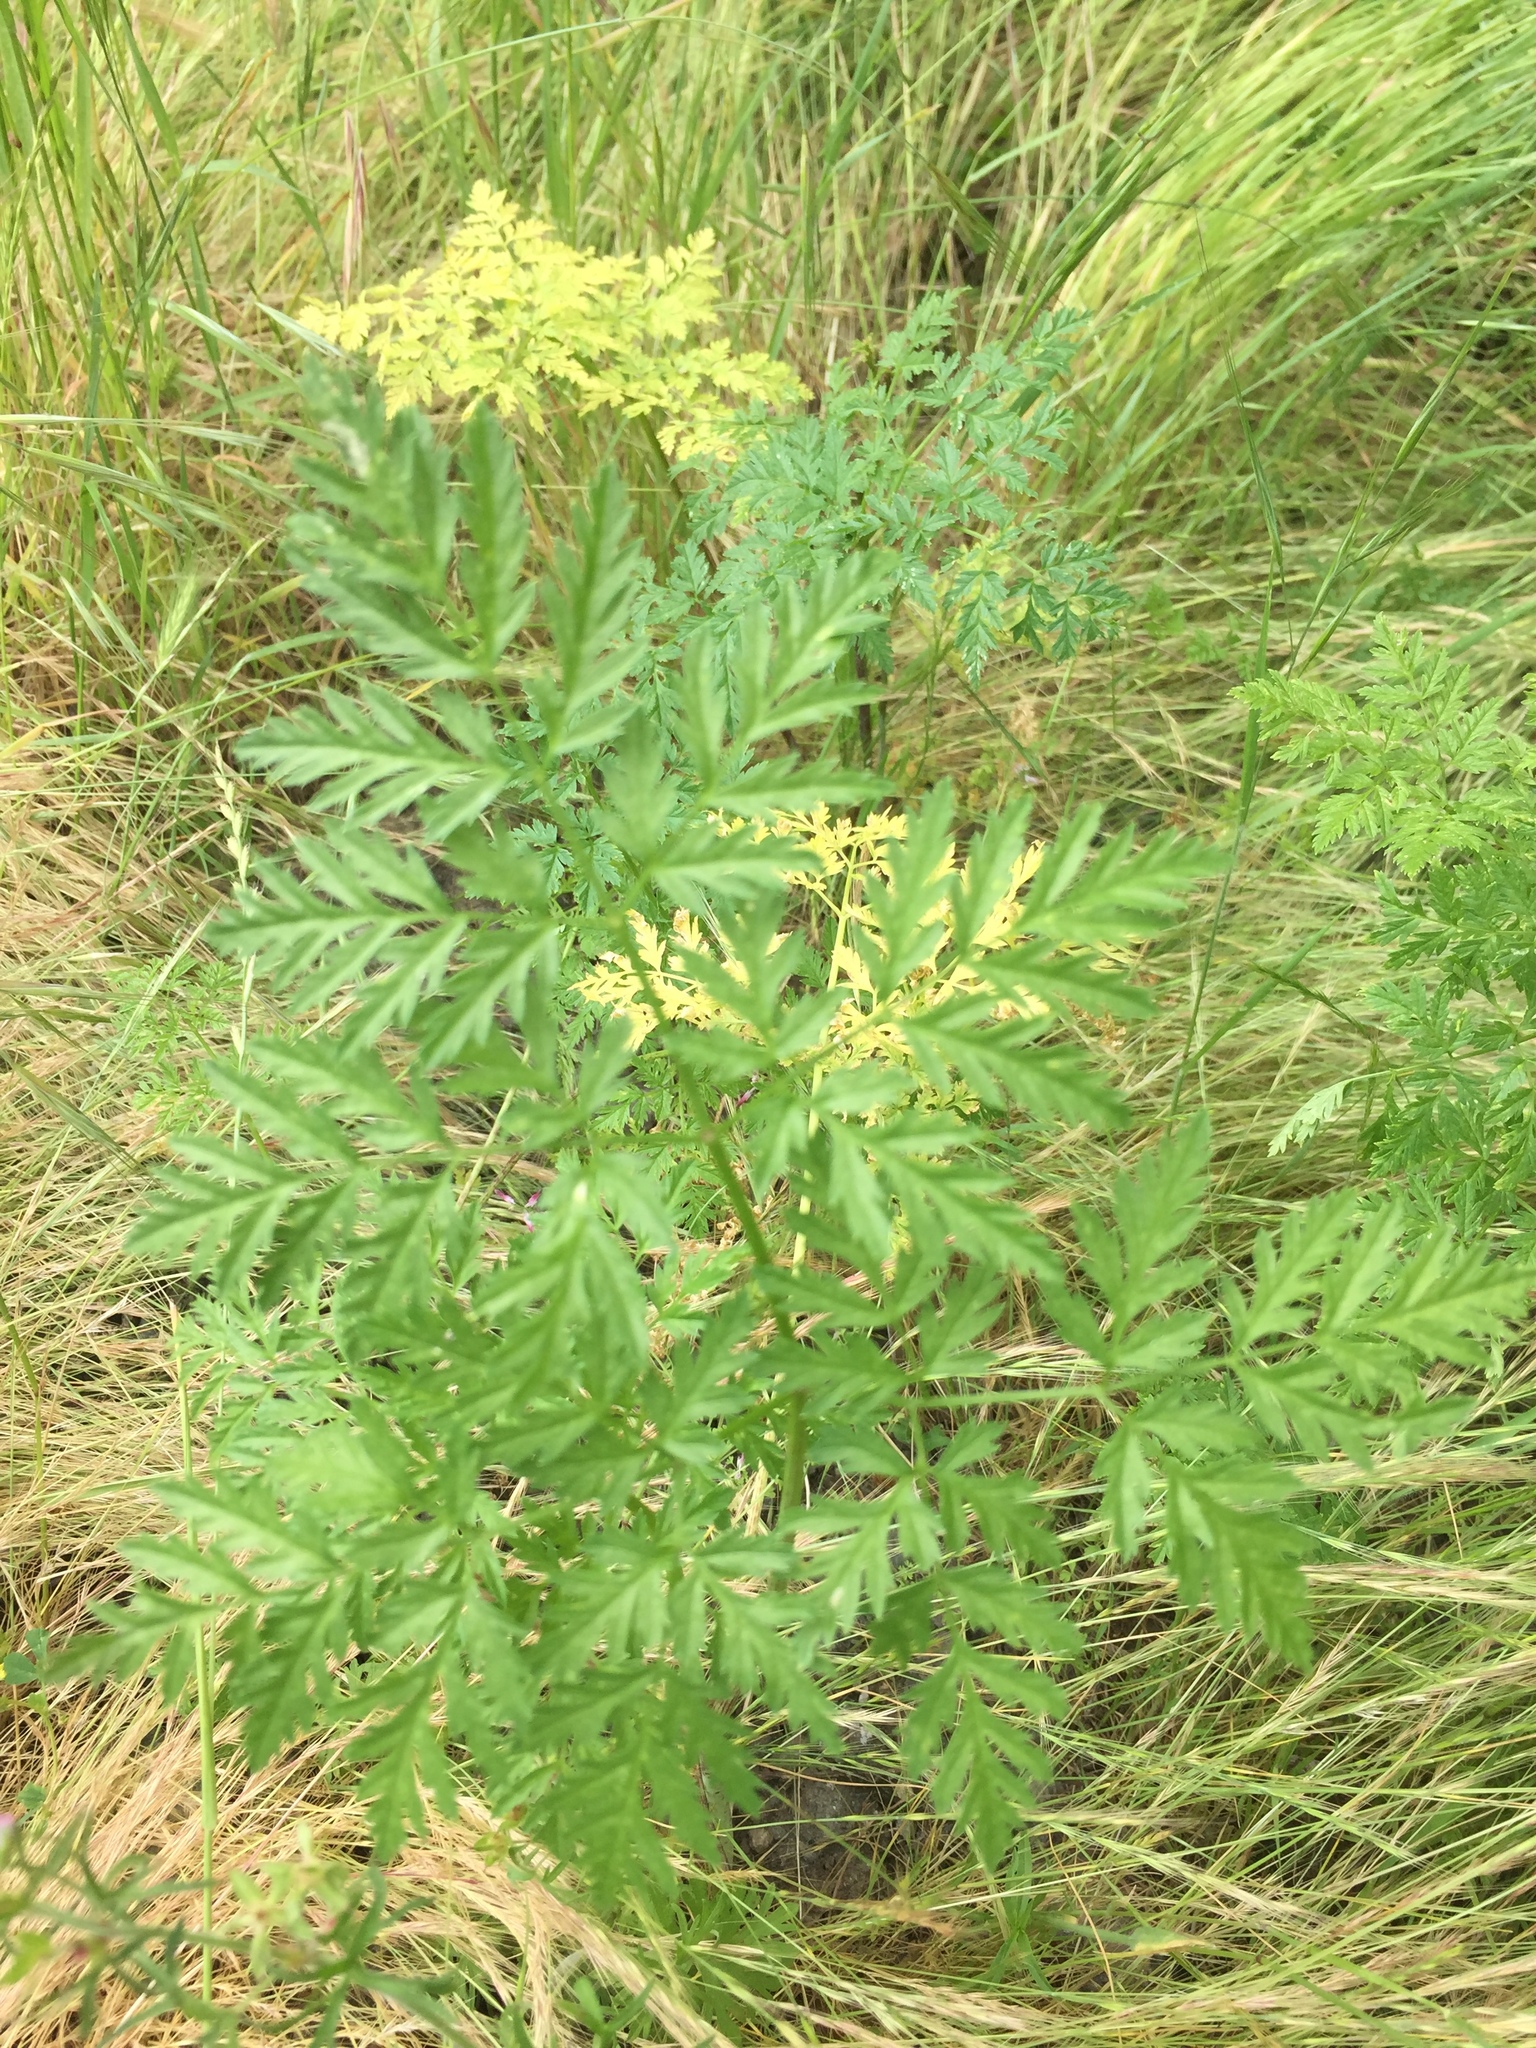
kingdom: Plantae
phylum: Tracheophyta
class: Magnoliopsida
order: Apiales
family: Apiaceae
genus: Conium
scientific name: Conium maculatum
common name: Hemlock
